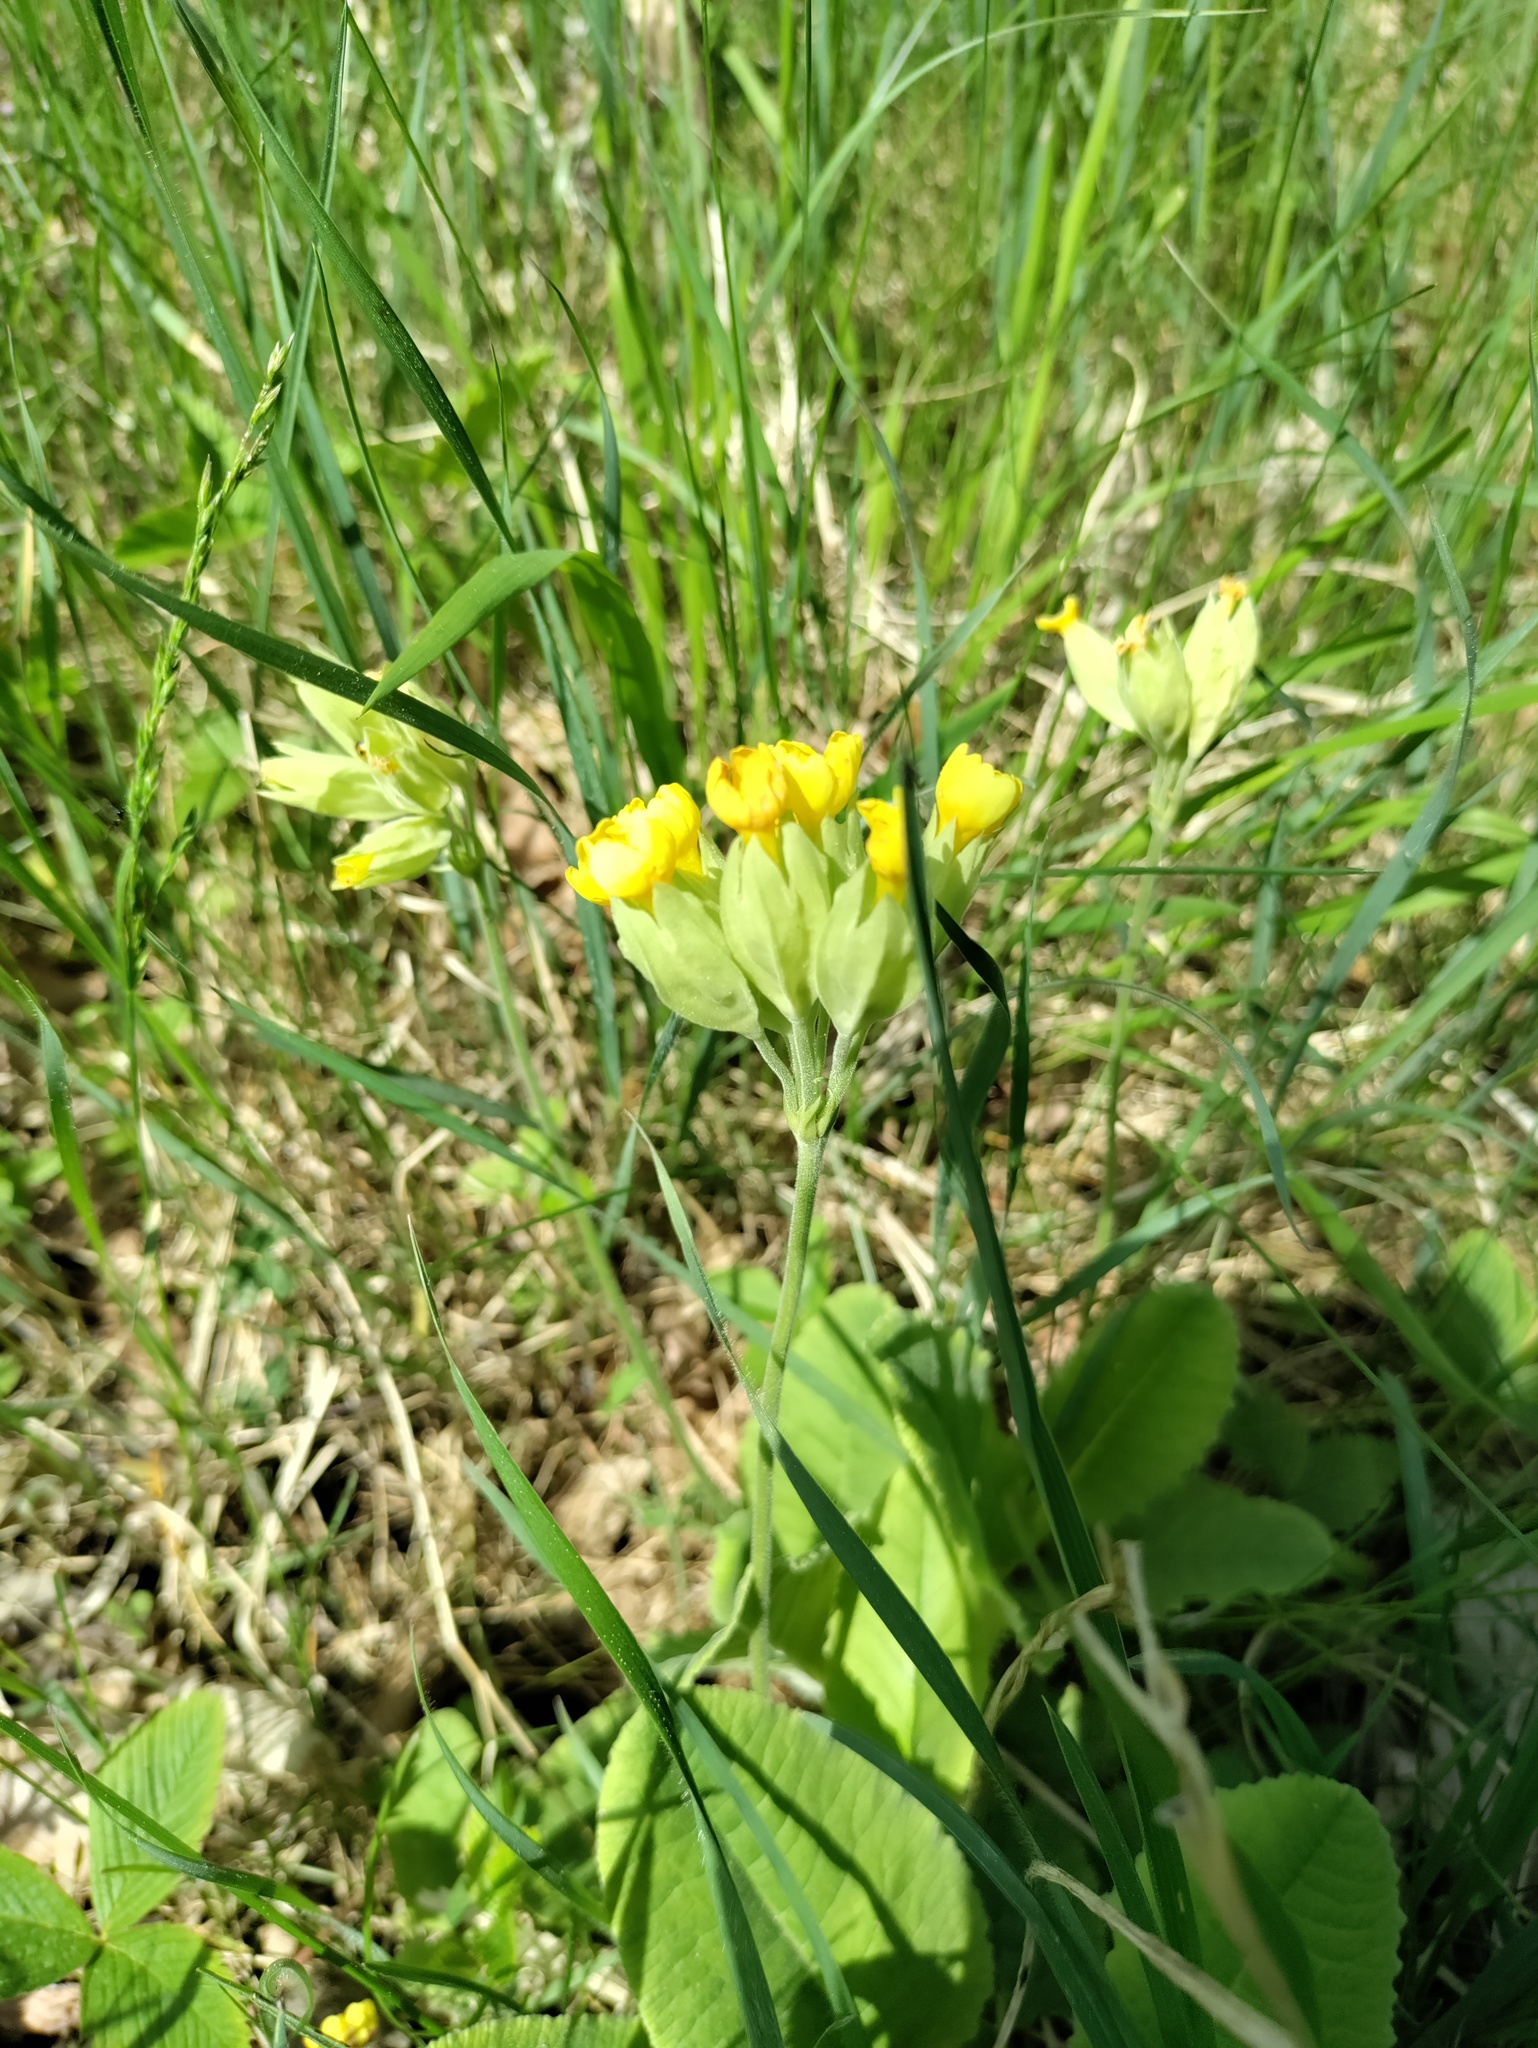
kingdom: Plantae
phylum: Tracheophyta
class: Magnoliopsida
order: Ericales
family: Primulaceae
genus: Primula
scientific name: Primula veris
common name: Cowslip
